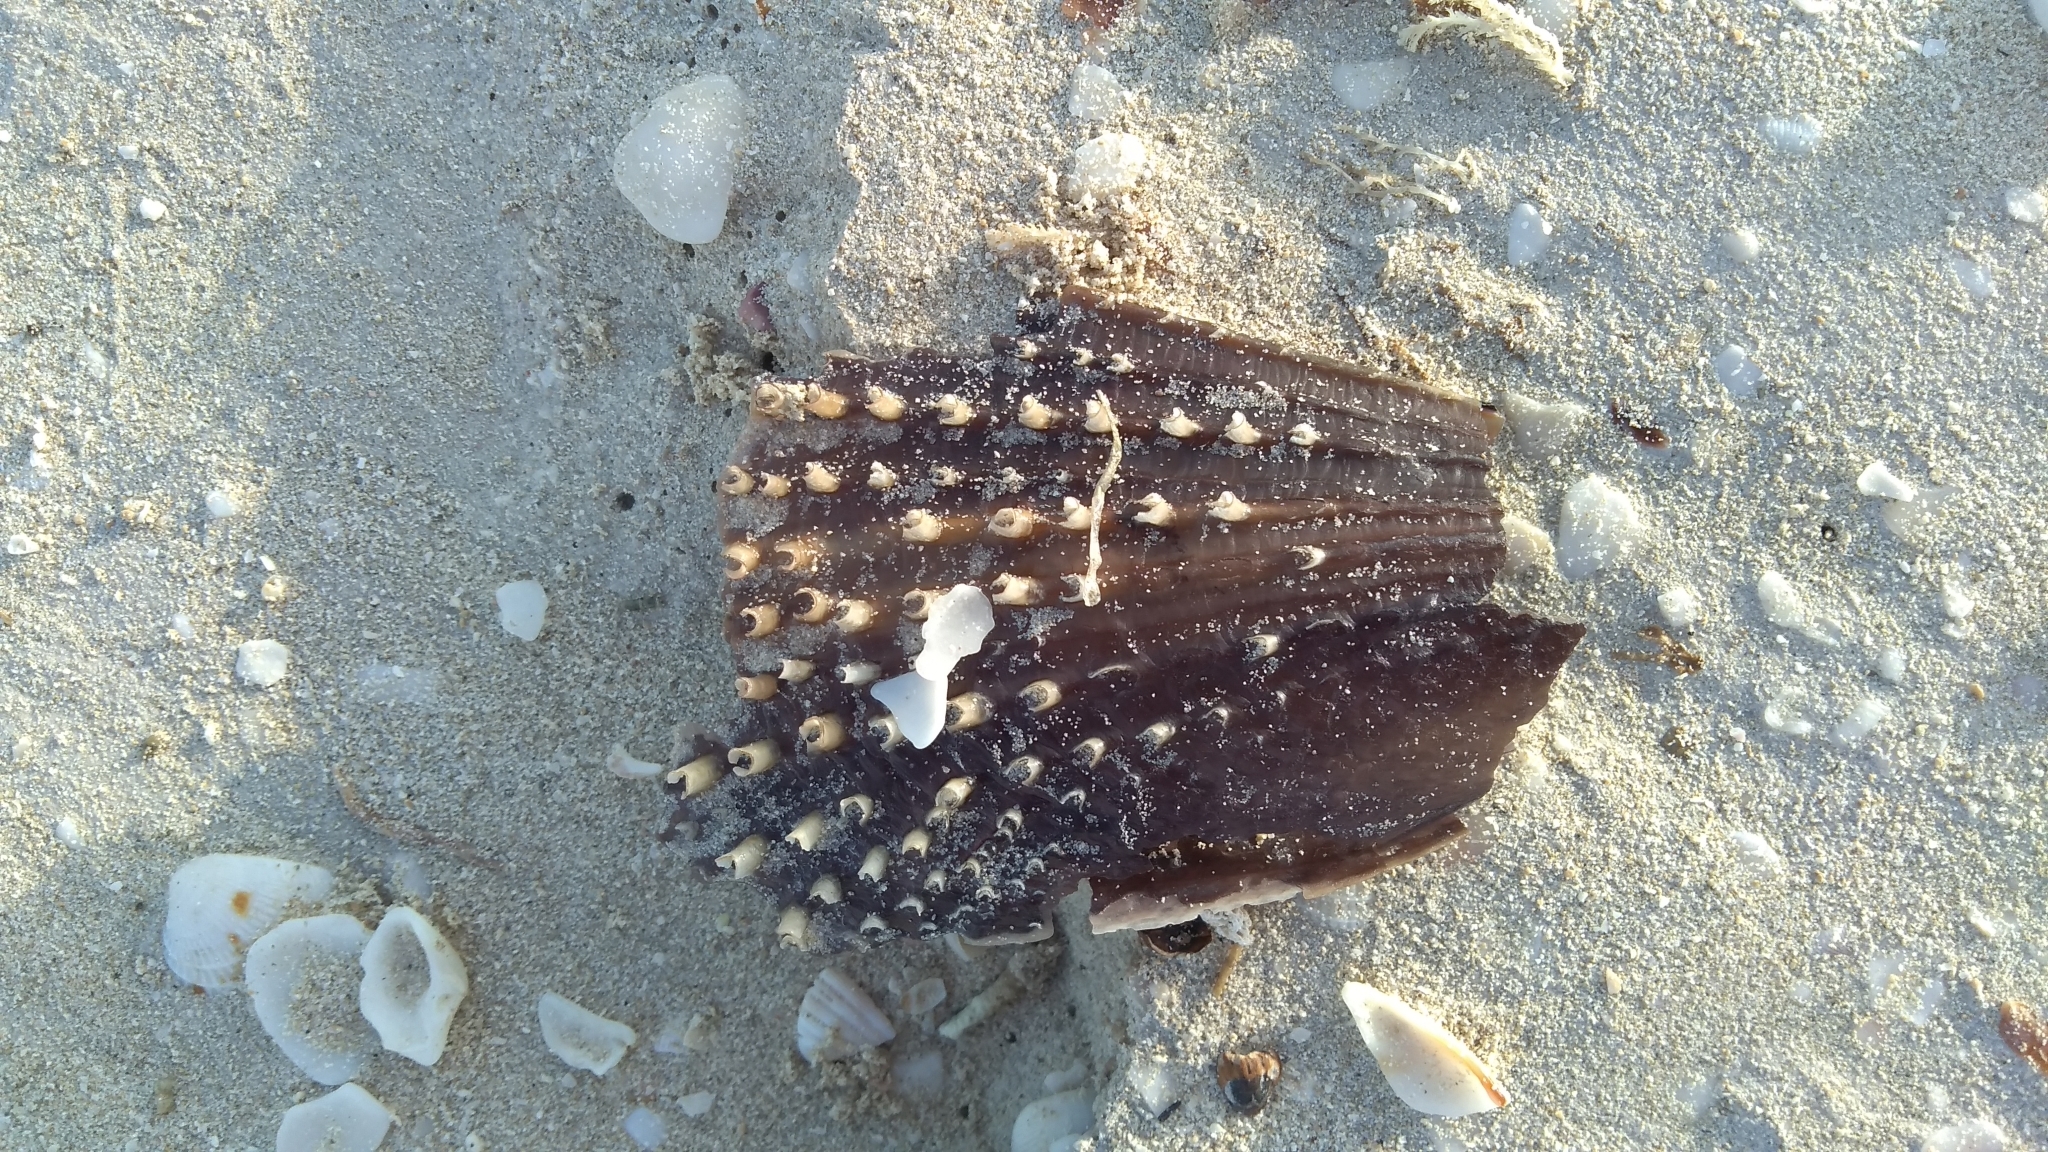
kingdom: Animalia
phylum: Mollusca
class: Bivalvia
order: Ostreida
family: Pinnidae
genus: Atrina
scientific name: Atrina rigida
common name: Stiff penshell
